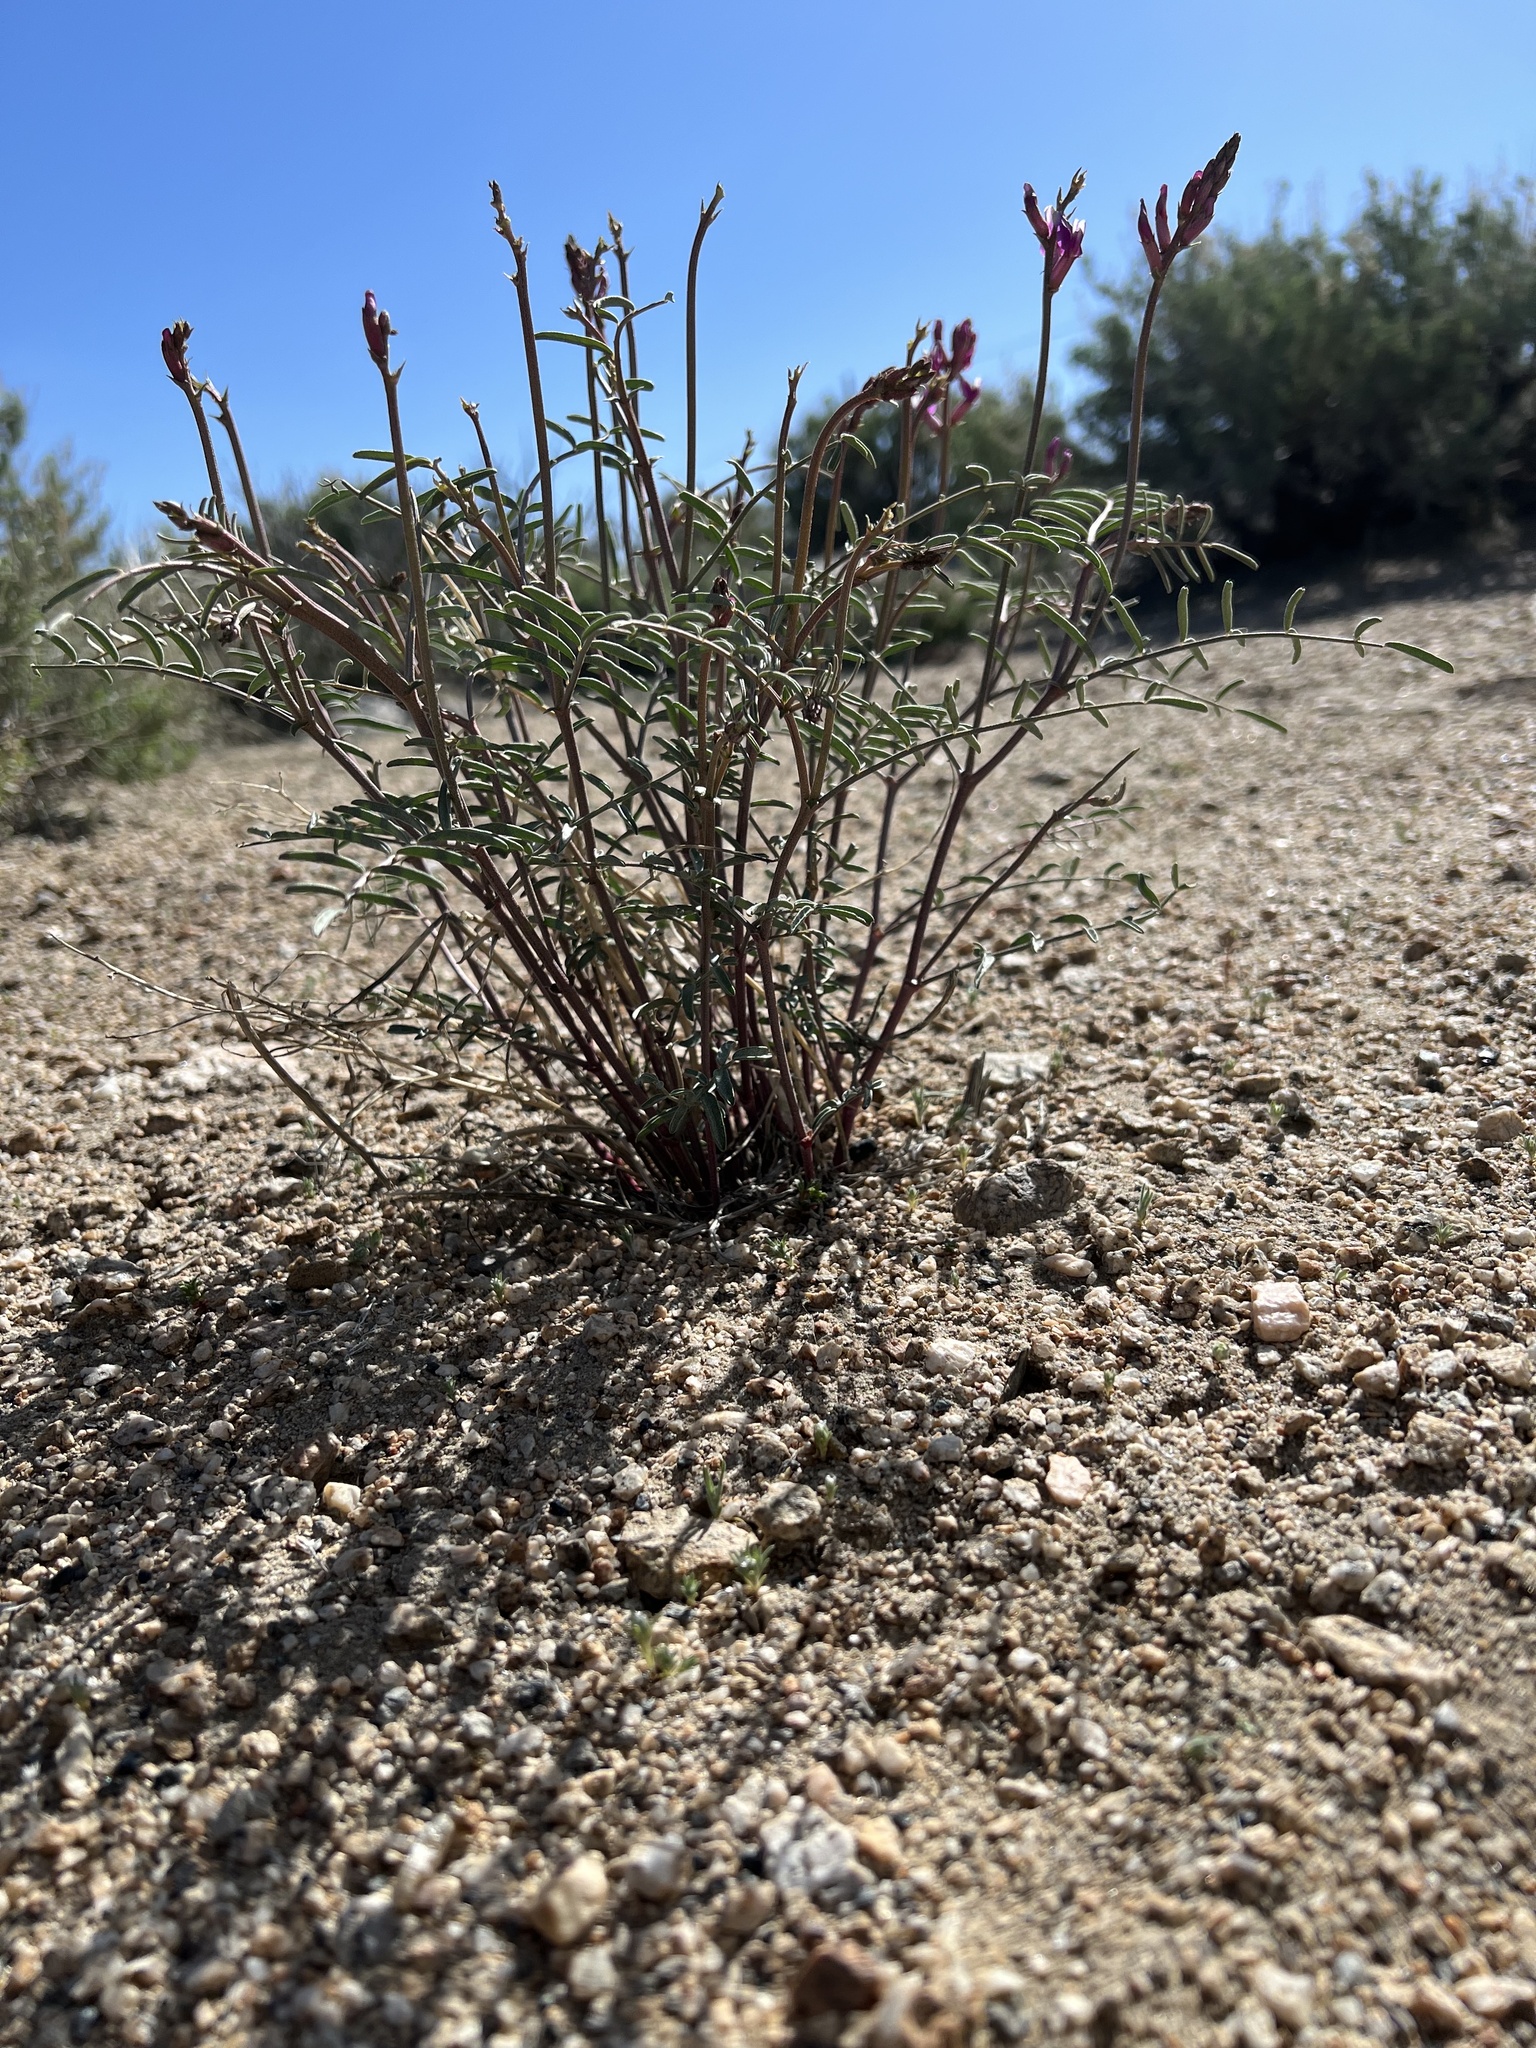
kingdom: Plantae
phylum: Tracheophyta
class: Magnoliopsida
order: Fabales
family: Fabaceae
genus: Astragalus
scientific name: Astragalus casei
